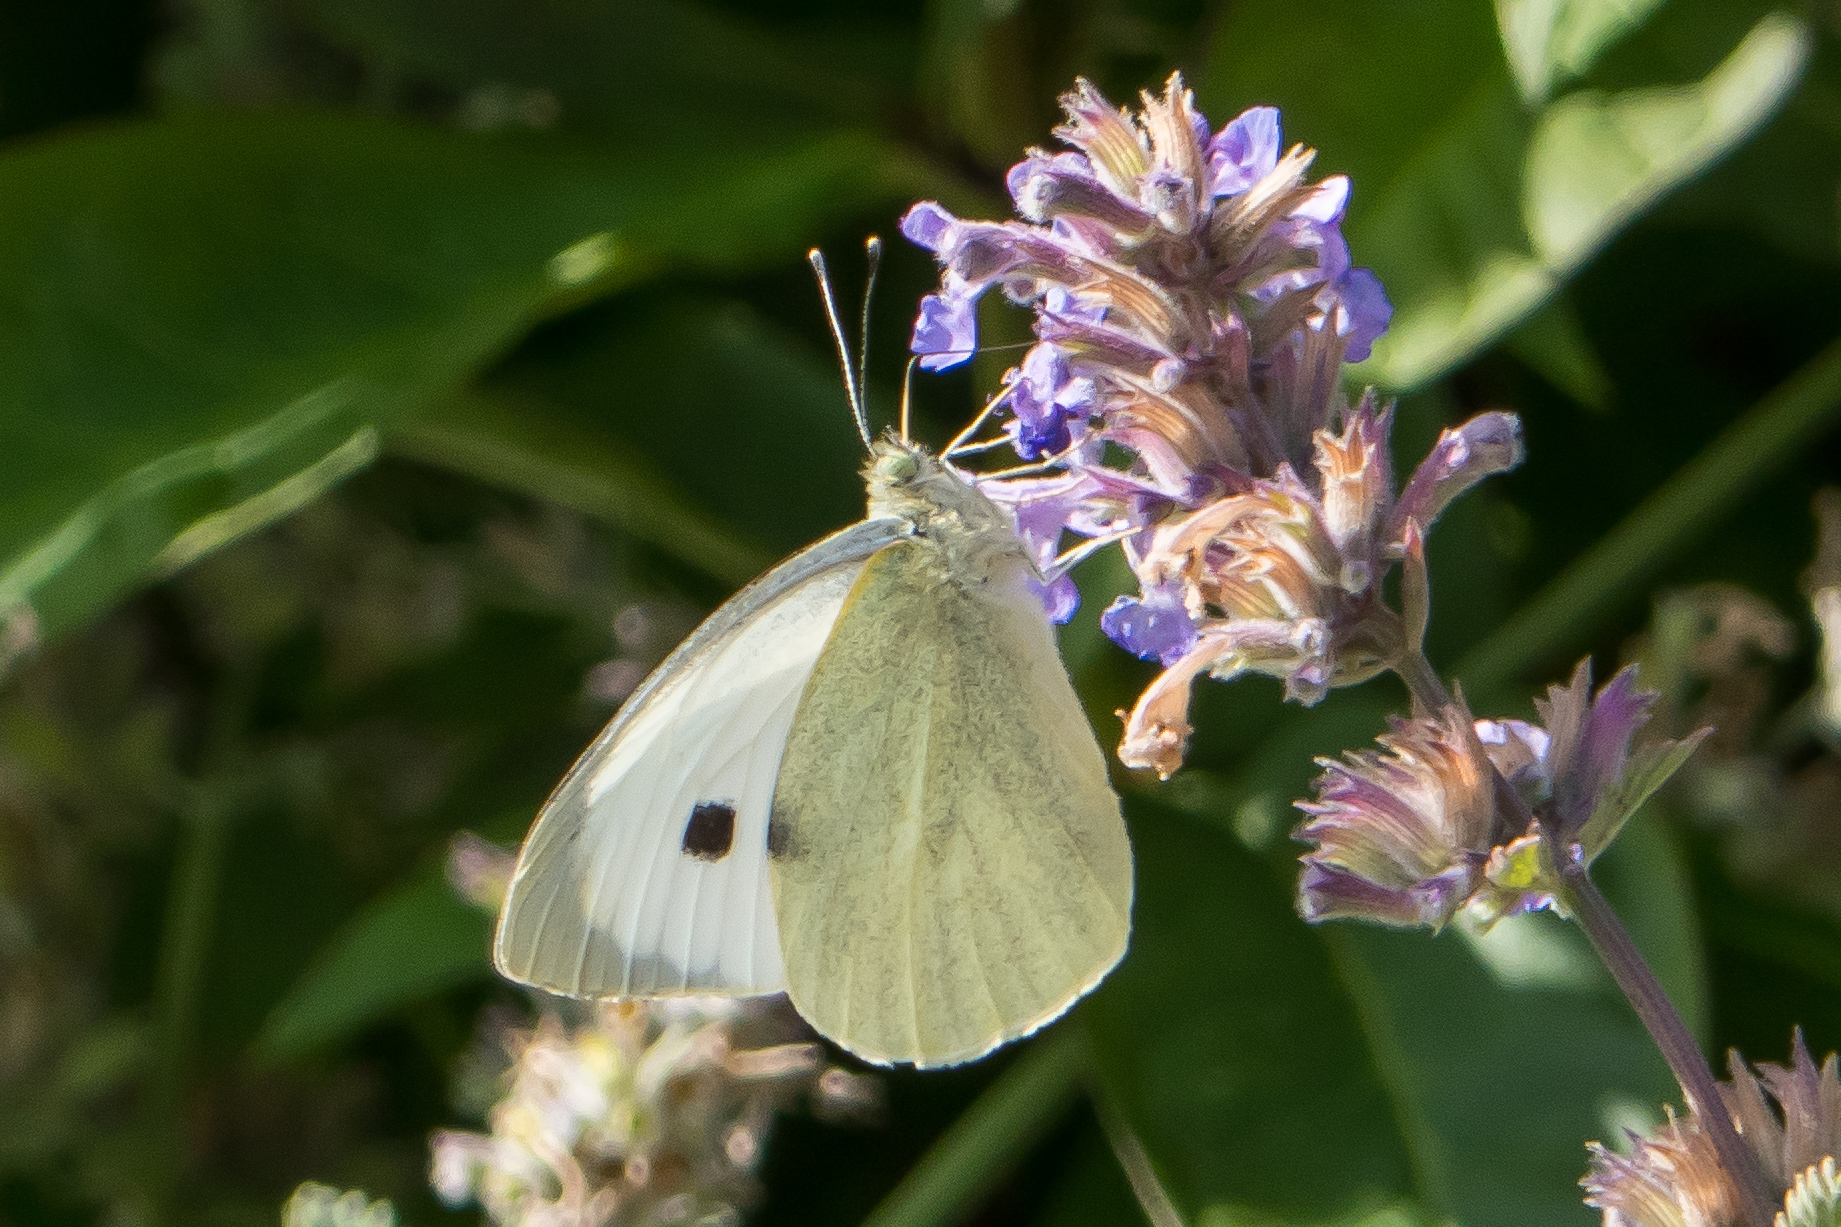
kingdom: Animalia
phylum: Arthropoda
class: Insecta
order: Lepidoptera
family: Pieridae
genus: Pieris
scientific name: Pieris brassicae
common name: Large white
